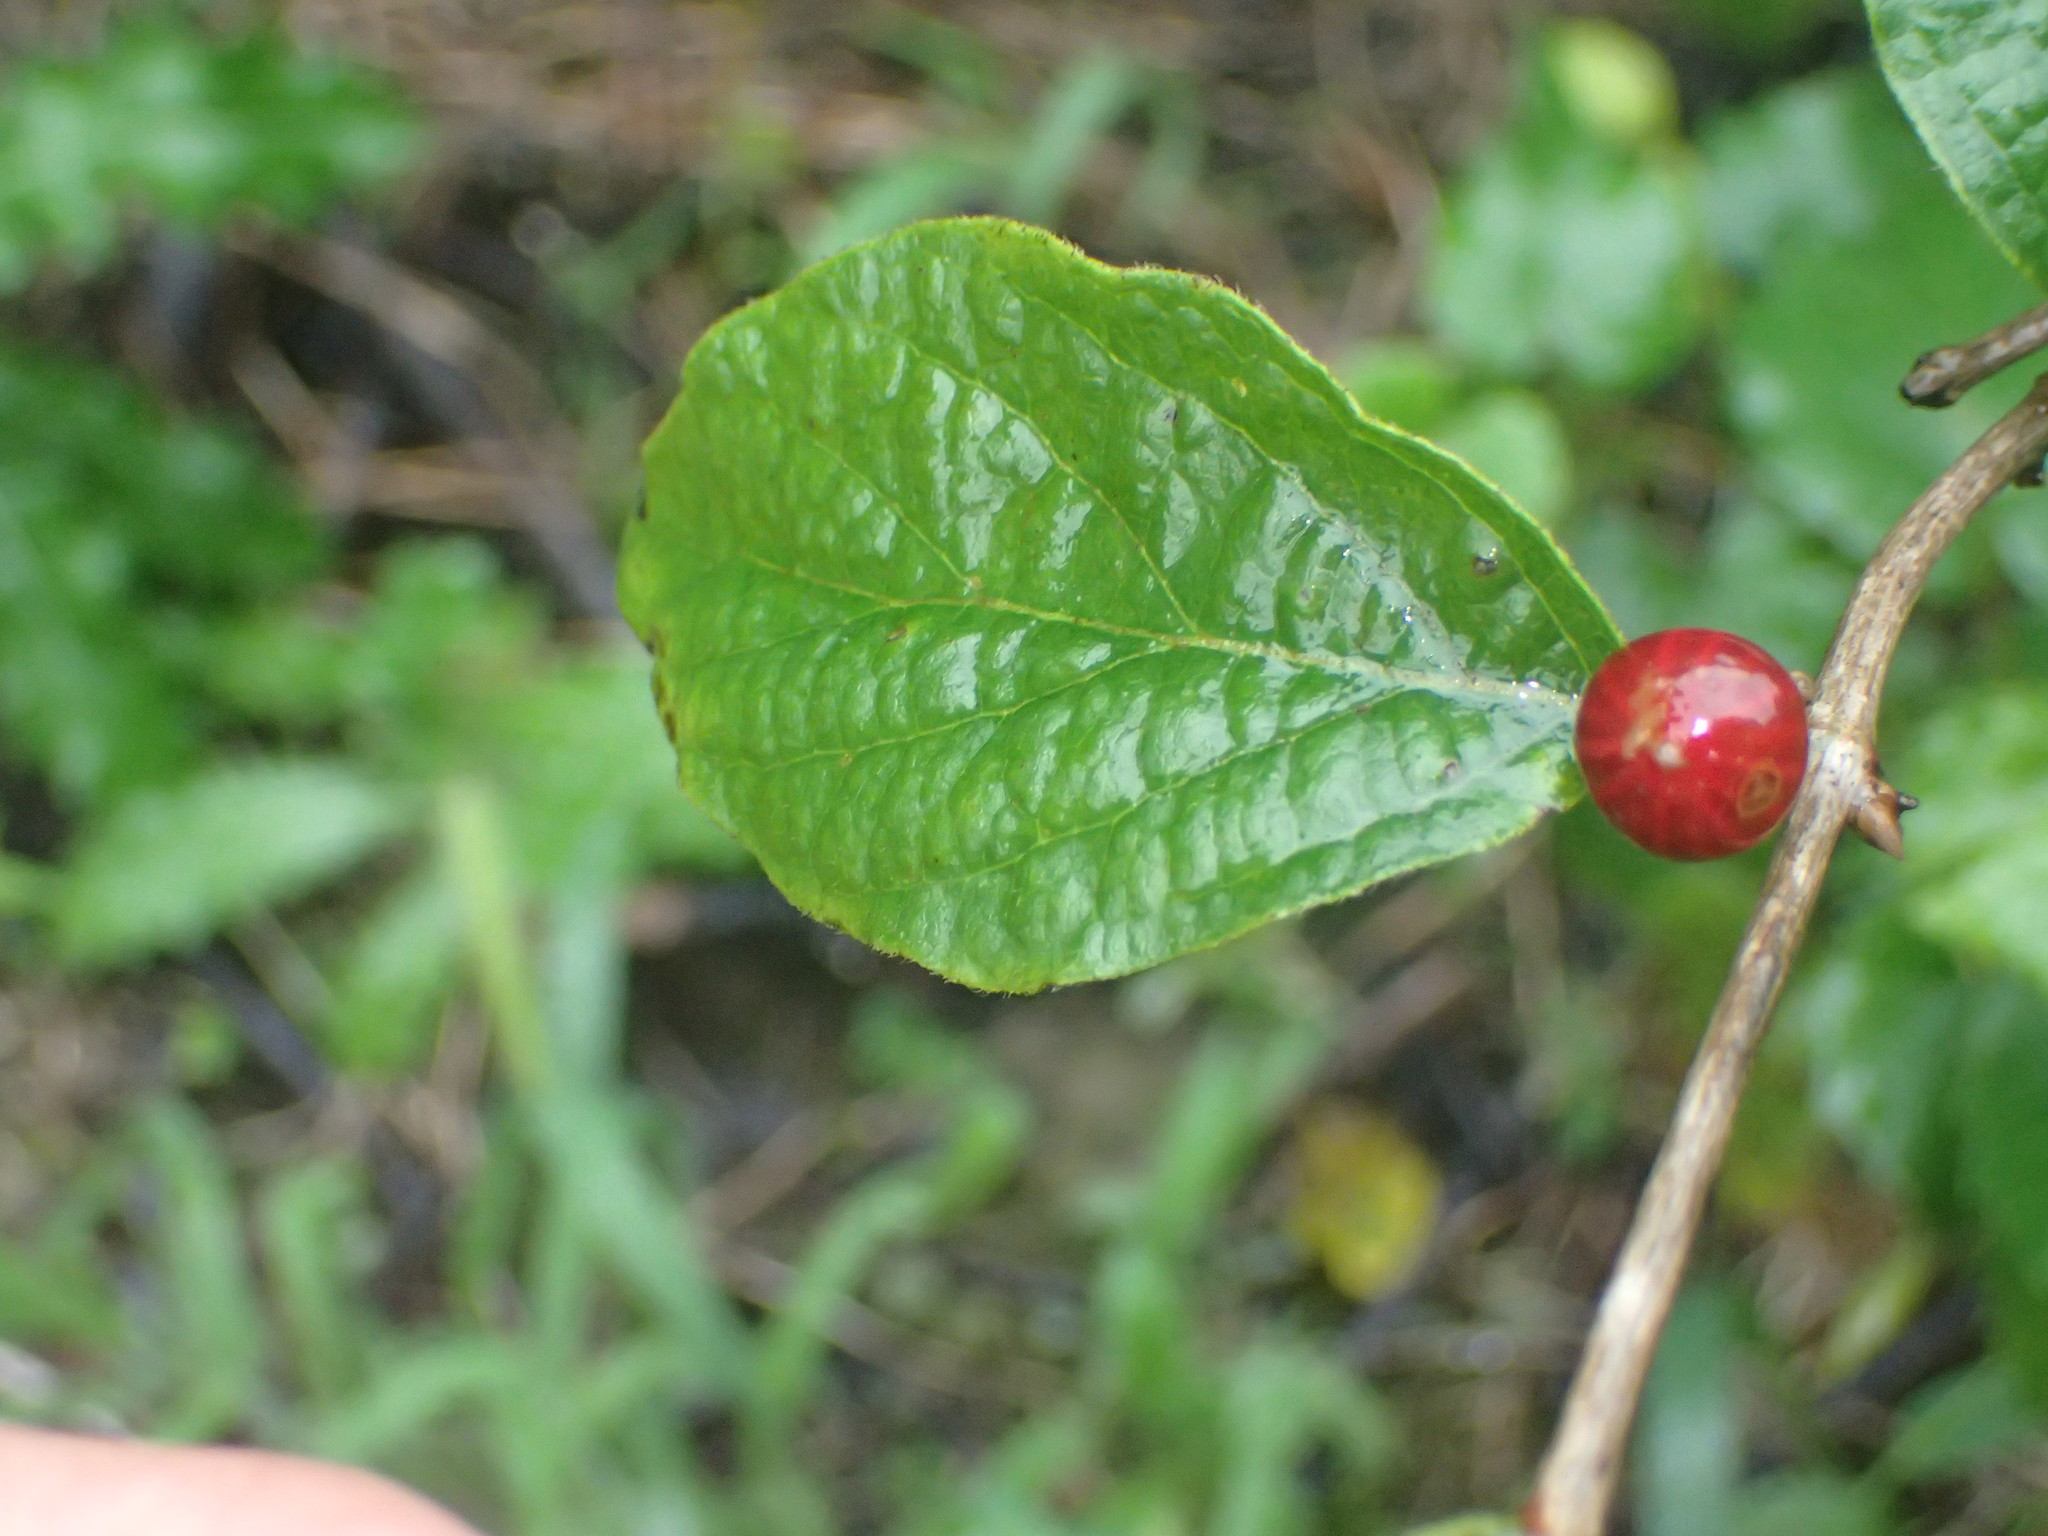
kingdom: Plantae
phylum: Tracheophyta
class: Magnoliopsida
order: Dipsacales
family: Caprifoliaceae
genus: Lonicera
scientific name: Lonicera maackii
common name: Amur honeysuckle
